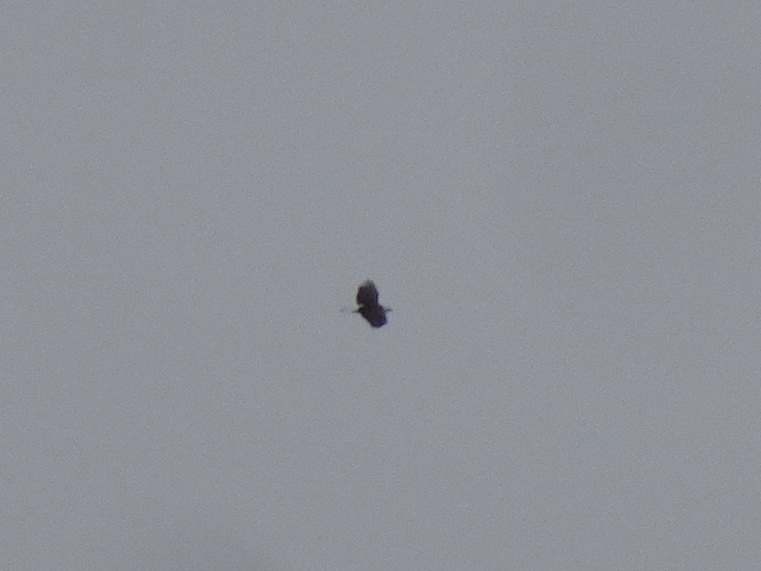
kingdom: Animalia
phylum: Chordata
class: Aves
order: Accipitriformes
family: Accipitridae
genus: Haliaeetus
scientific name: Haliaeetus leucocephalus
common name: Bald eagle
